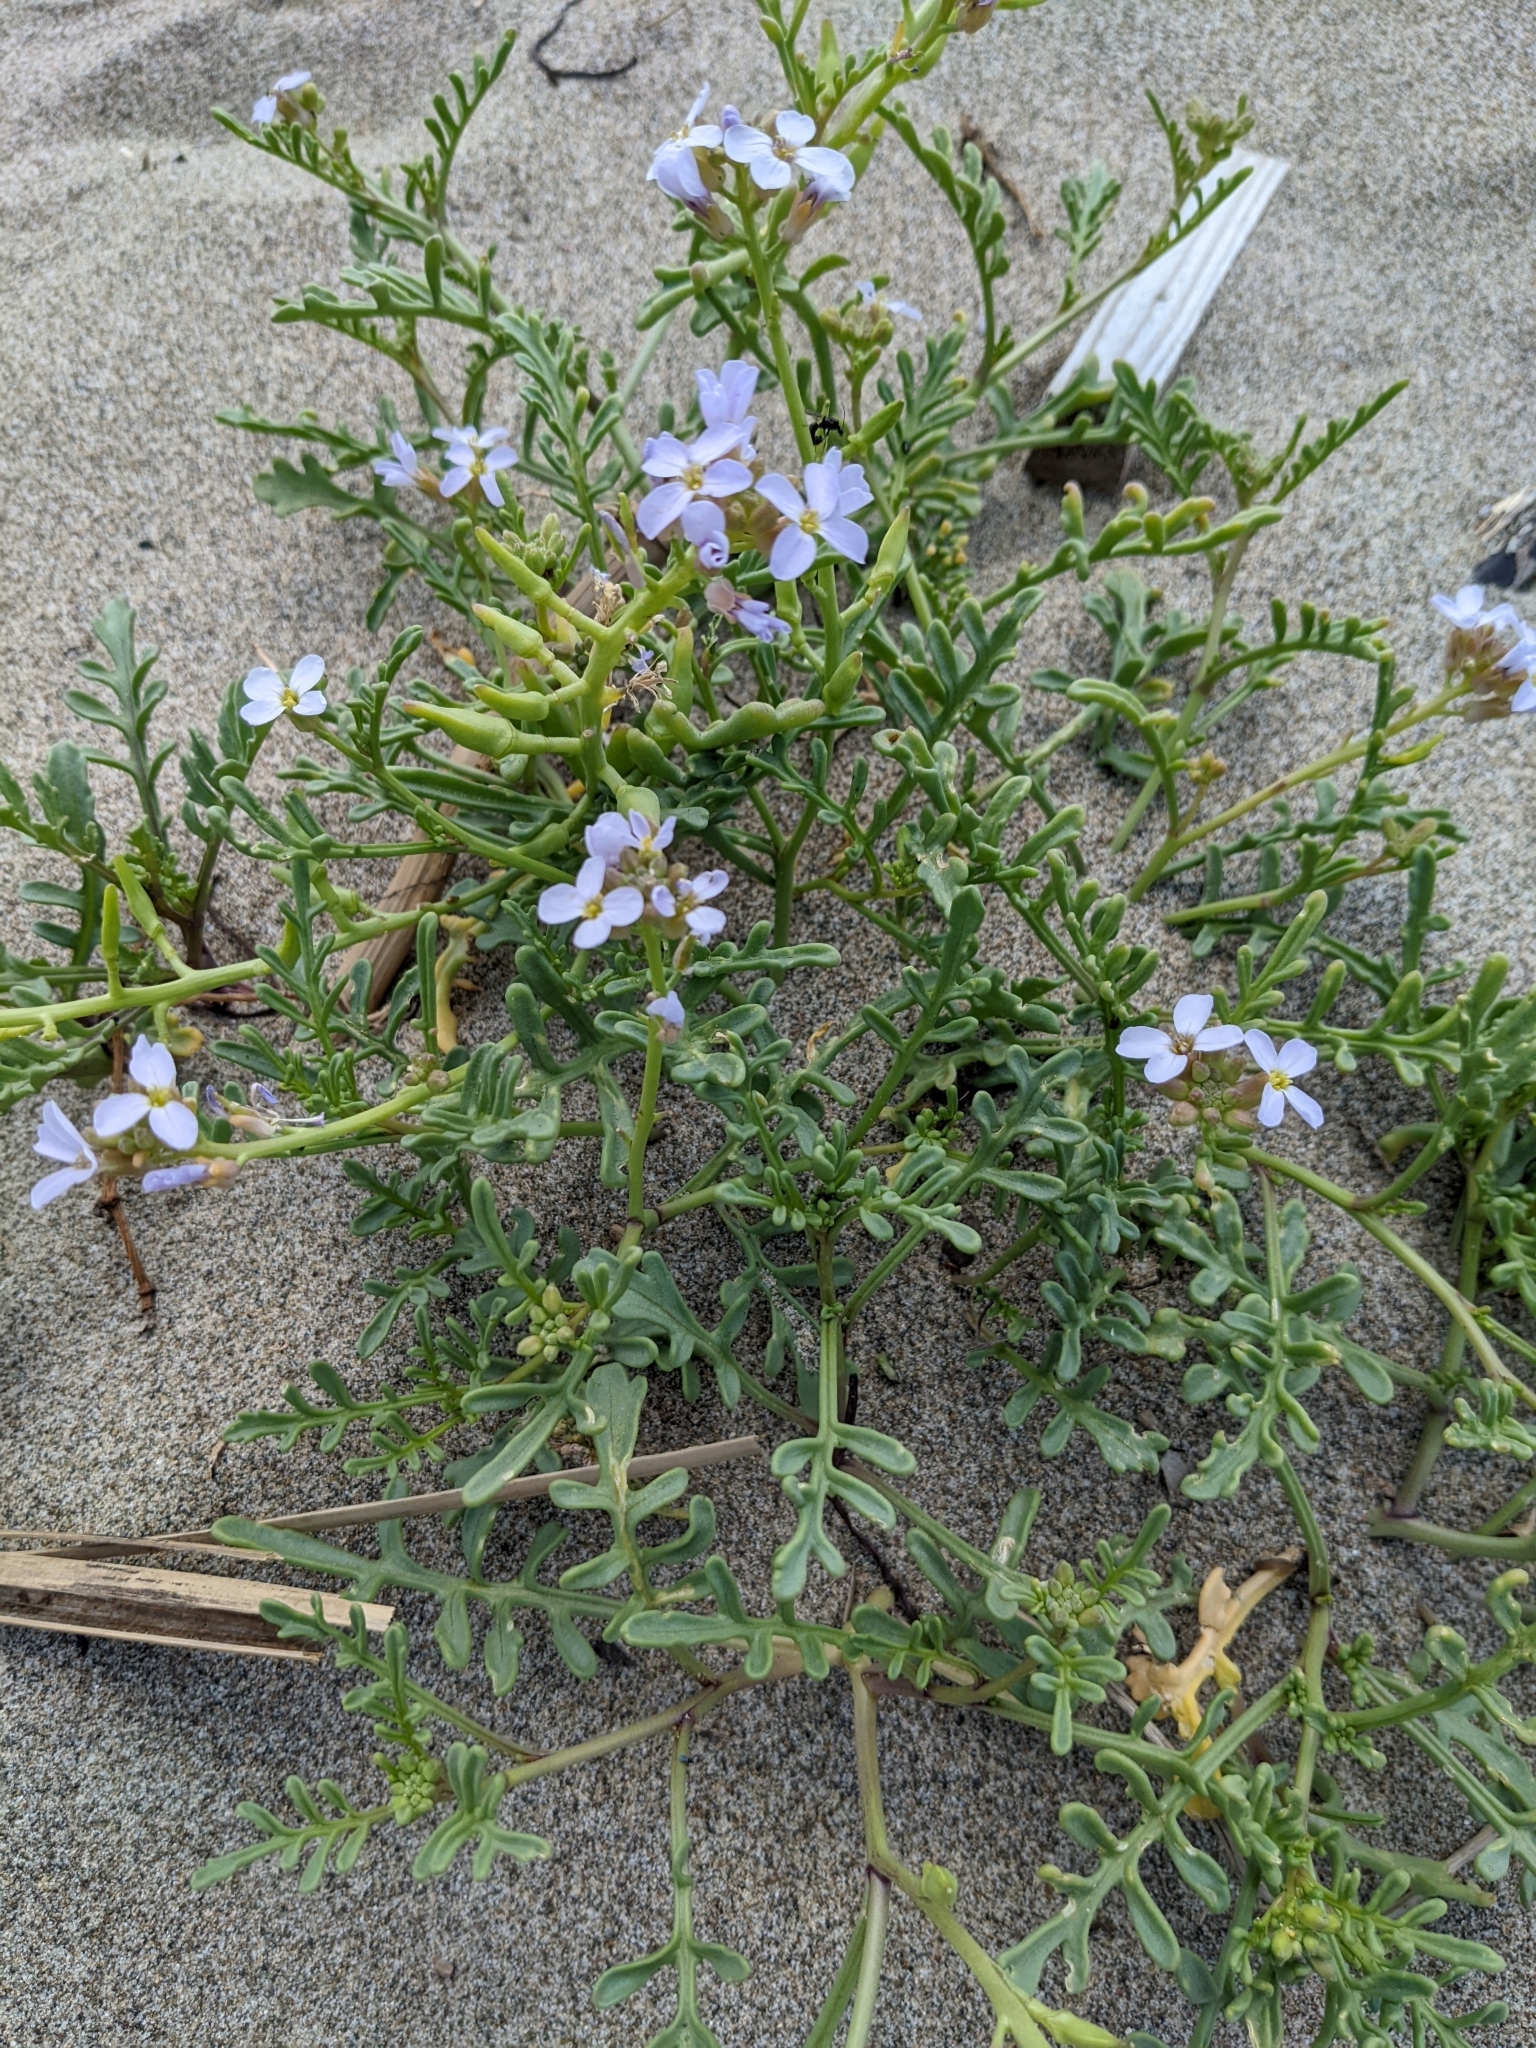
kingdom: Plantae
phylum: Tracheophyta
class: Magnoliopsida
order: Brassicales
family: Brassicaceae
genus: Cakile
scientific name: Cakile maritima
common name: Sea rocket
